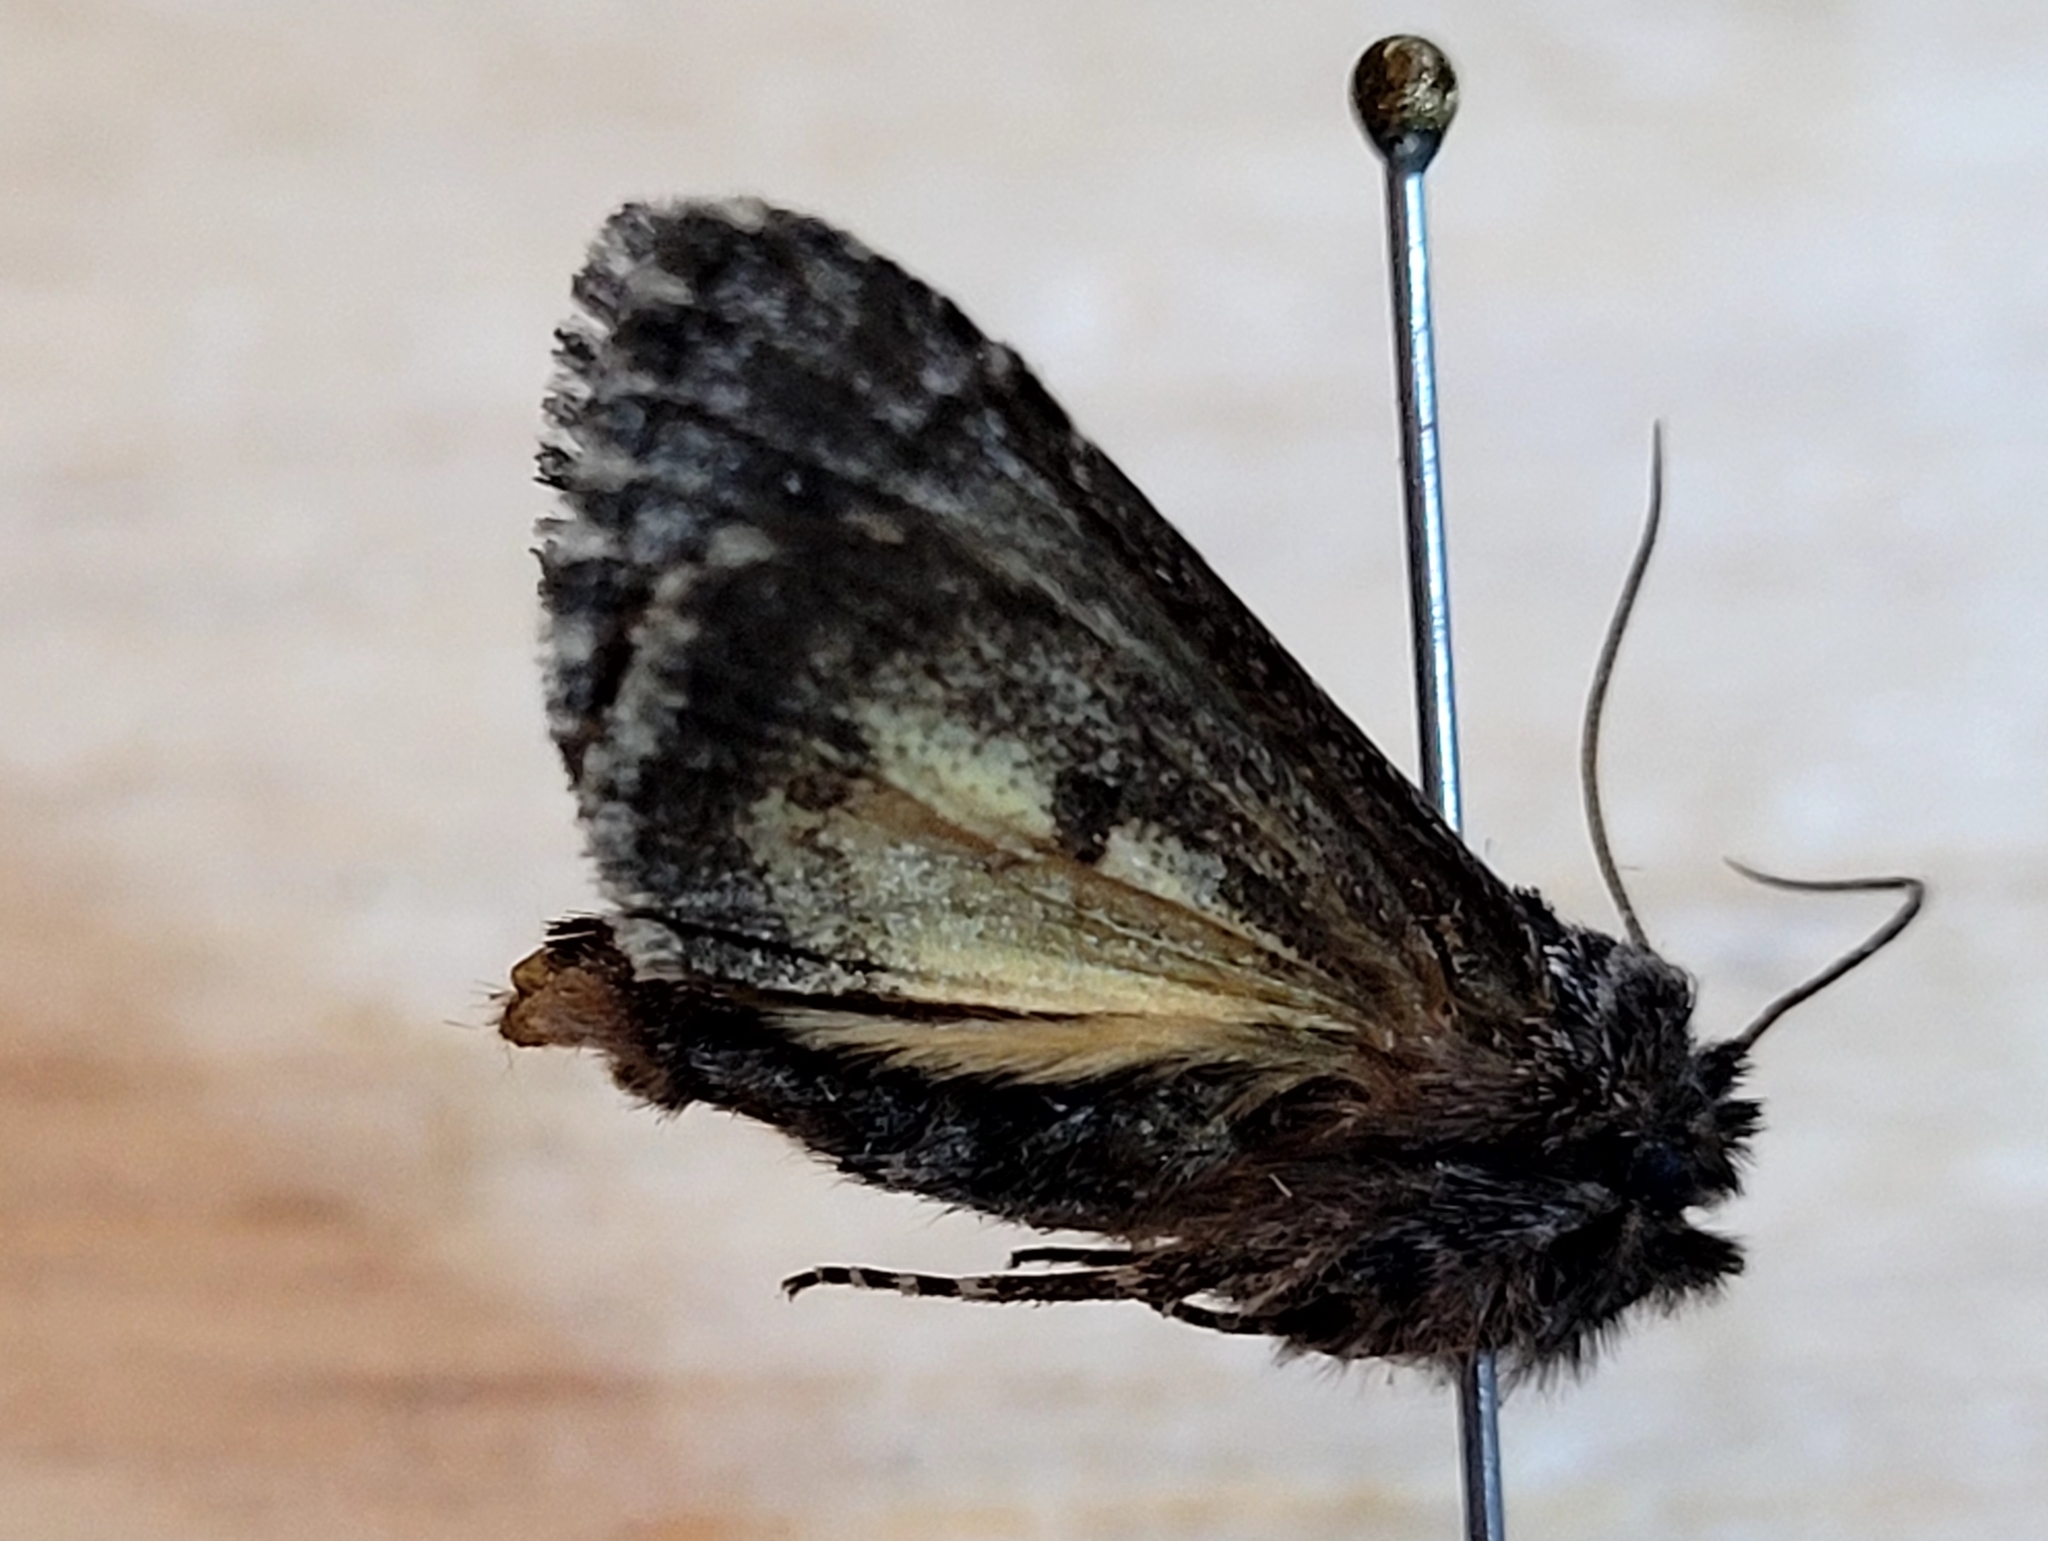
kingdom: Animalia
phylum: Arthropoda
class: Insecta
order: Lepidoptera
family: Noctuidae
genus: Lasionycta
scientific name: Lasionycta secedens
